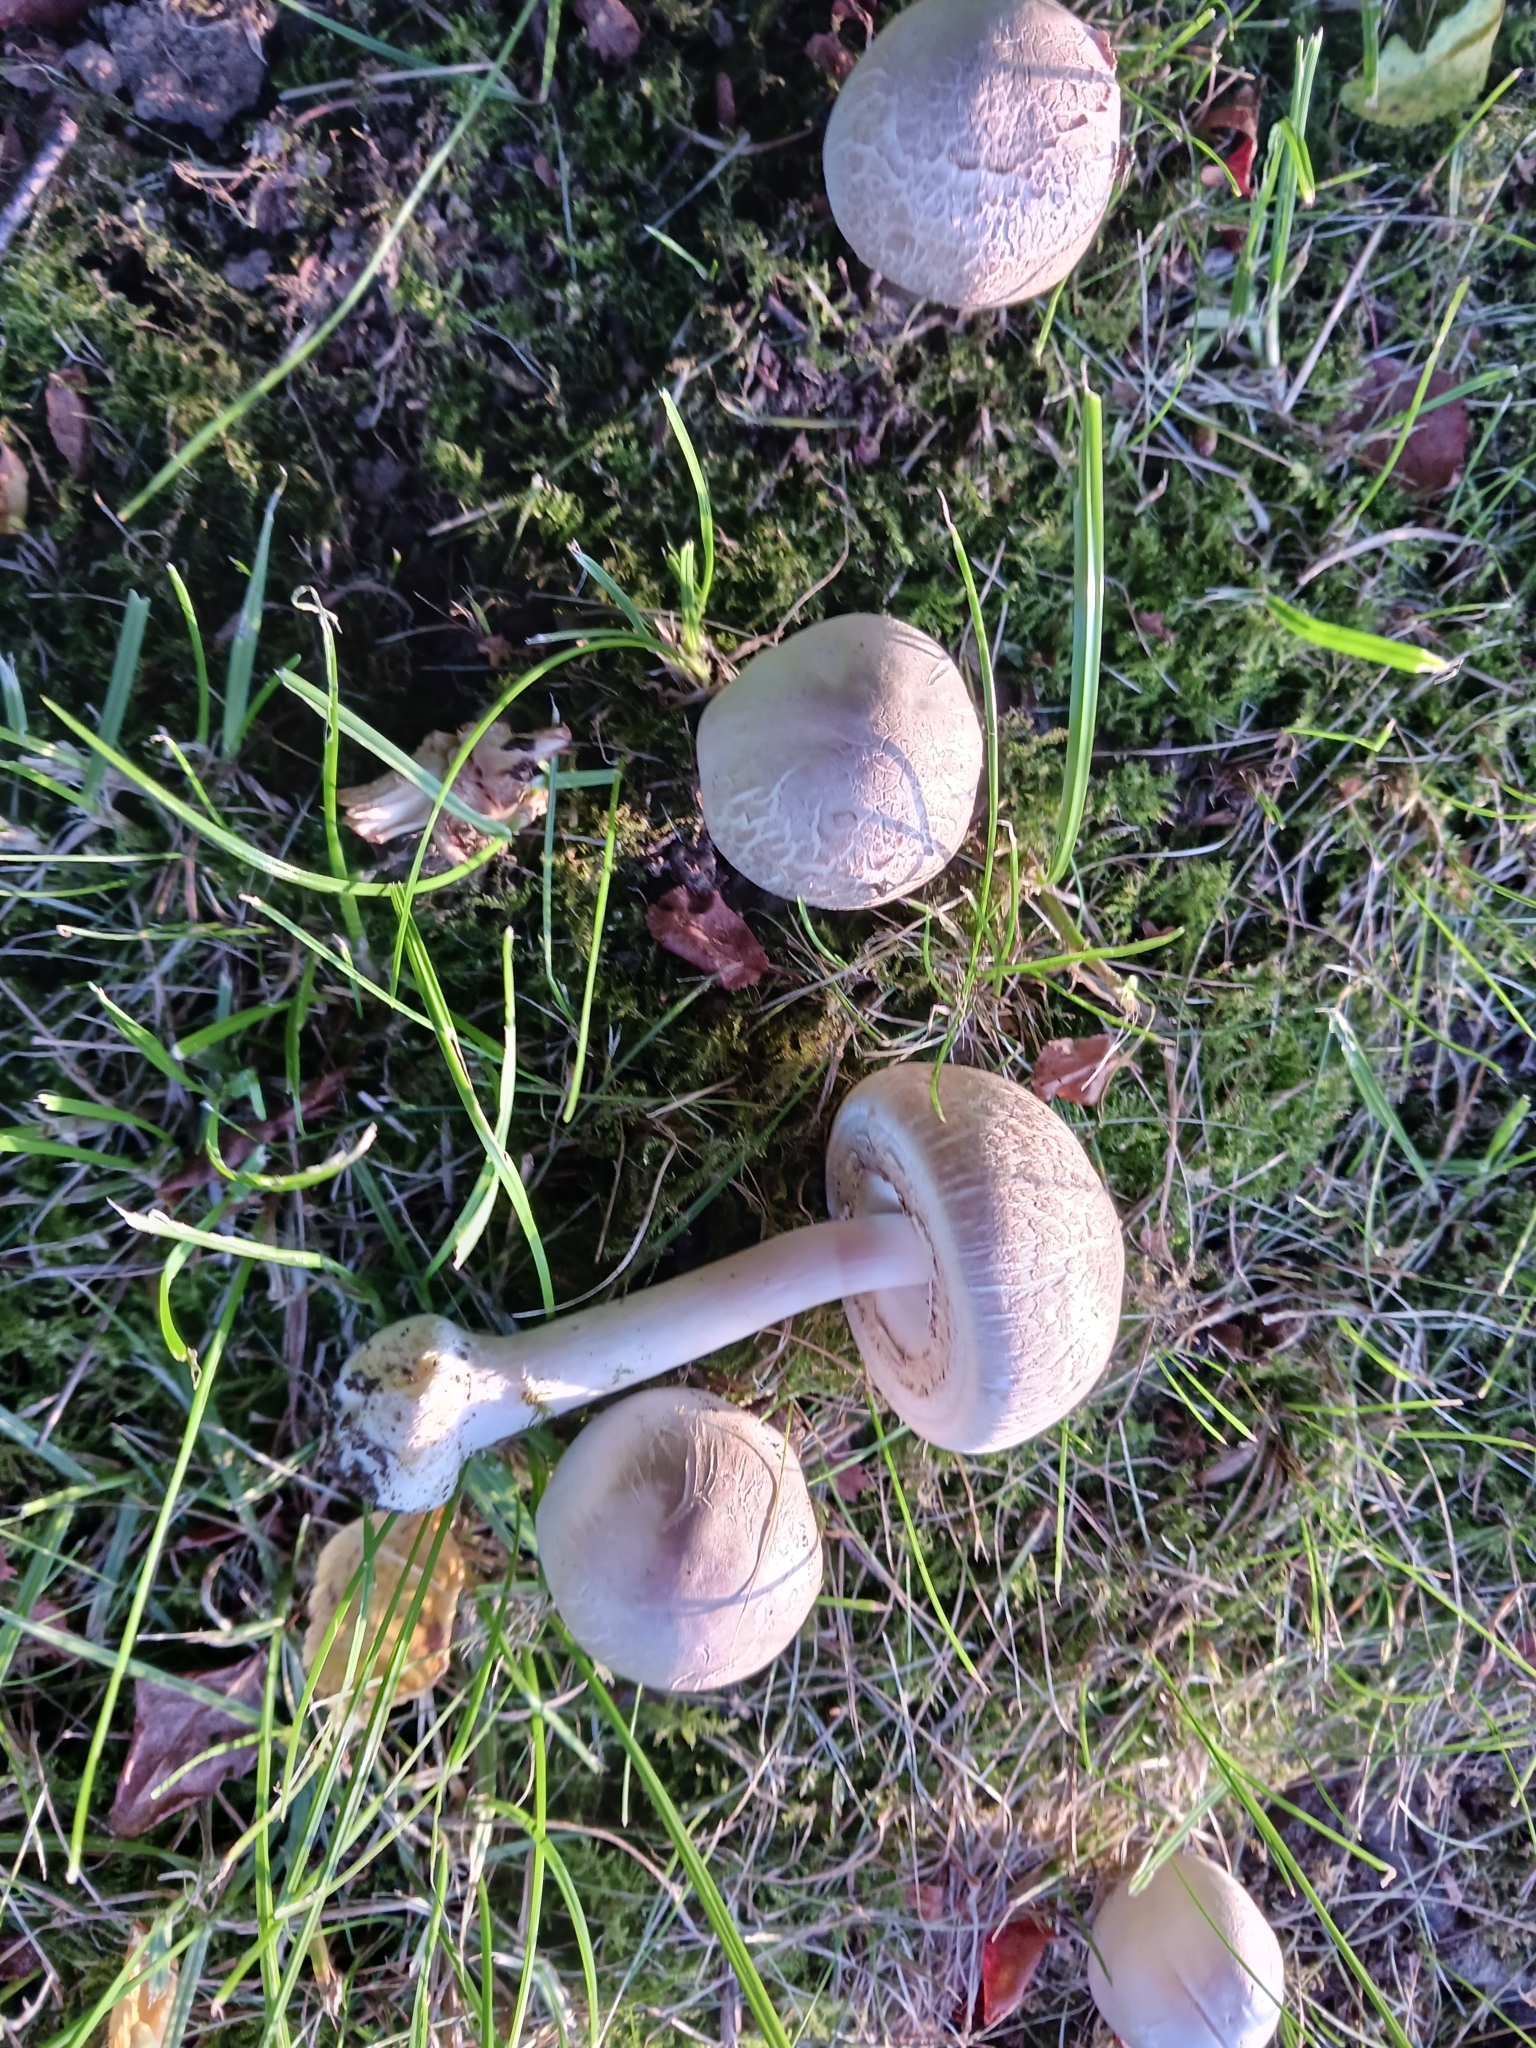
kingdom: Fungi
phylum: Basidiomycota
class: Agaricomycetes
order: Agaricales
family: Agaricaceae
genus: Agaricus
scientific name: Agaricus xanthodermus
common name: Yellow stainer
